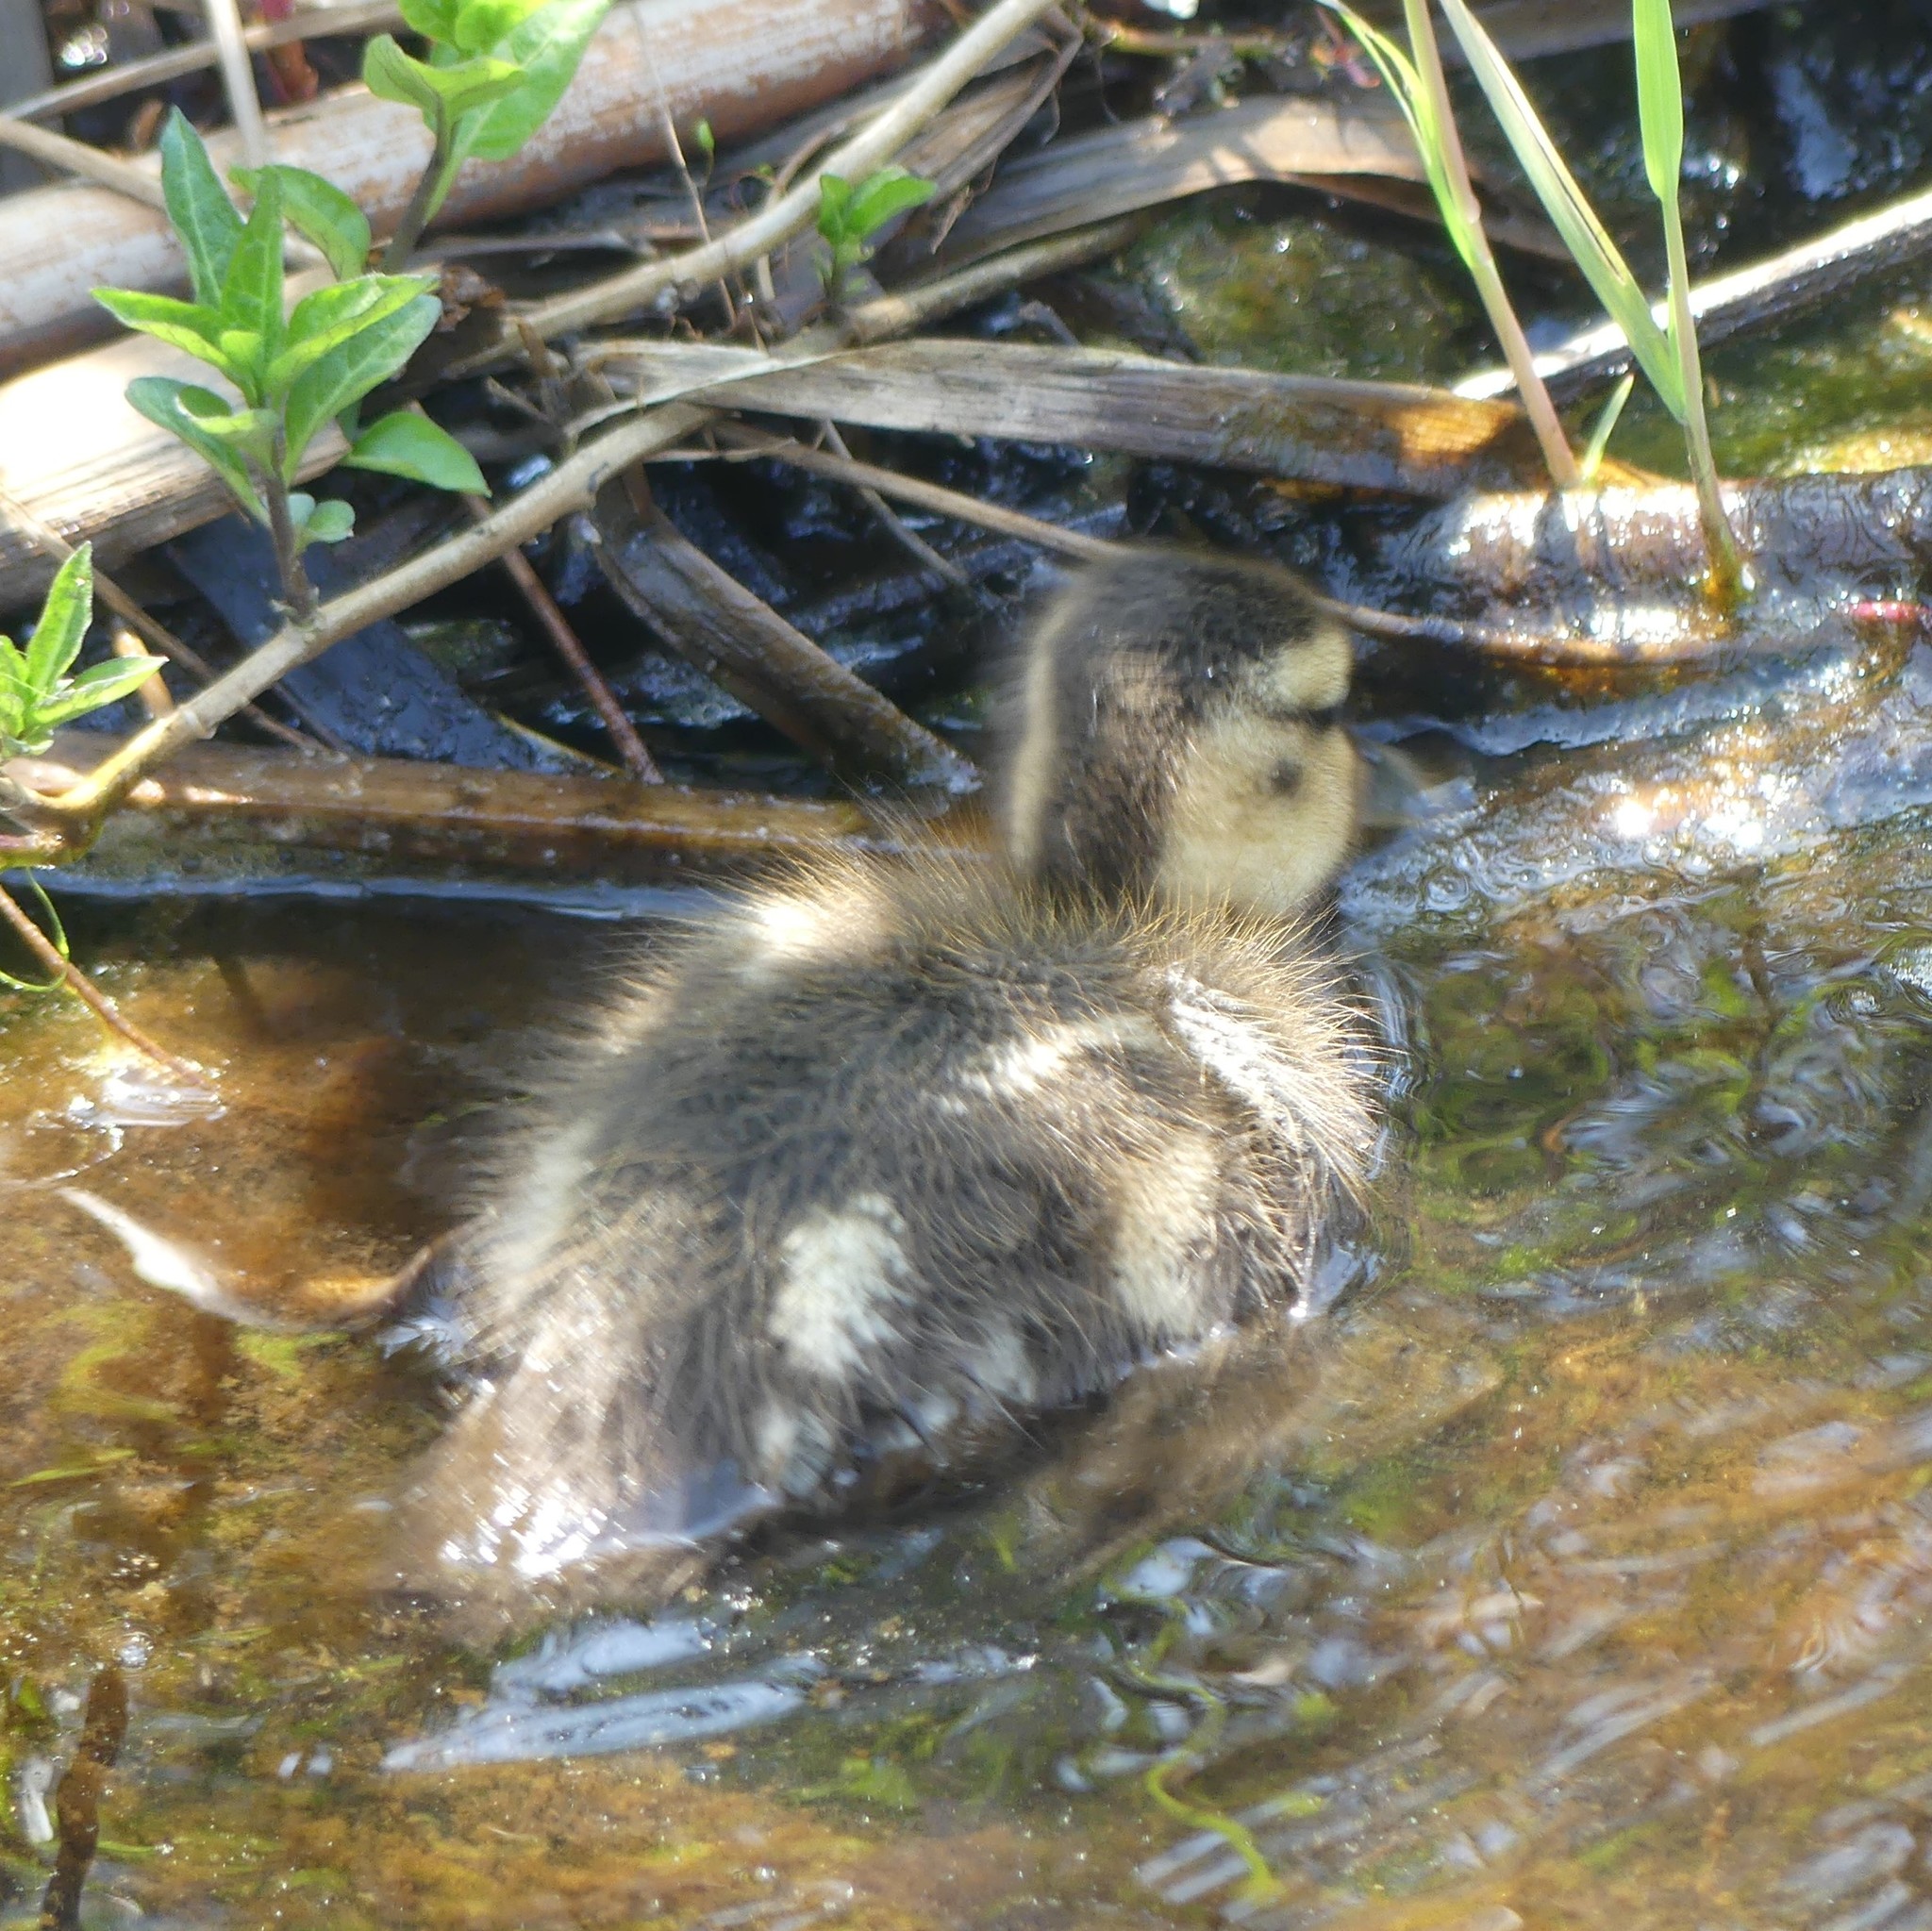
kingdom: Animalia
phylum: Chordata
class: Aves
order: Anseriformes
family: Anatidae
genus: Anas
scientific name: Anas platyrhynchos
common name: Mallard
